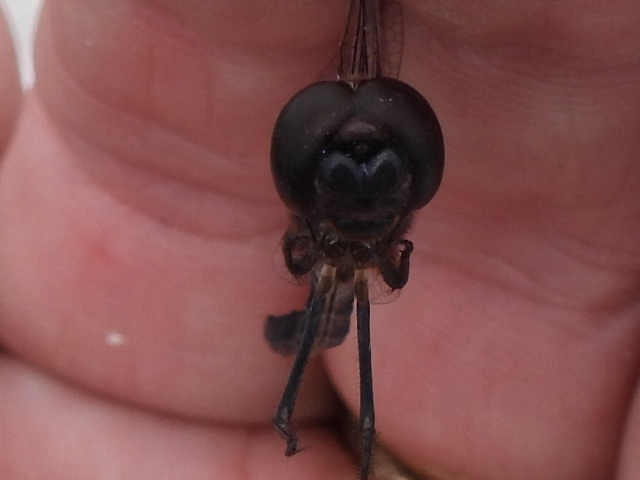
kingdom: Animalia
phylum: Arthropoda
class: Insecta
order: Odonata
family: Libellulidae
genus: Macrodiplax
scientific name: Macrodiplax balteata
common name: Marl pennant
